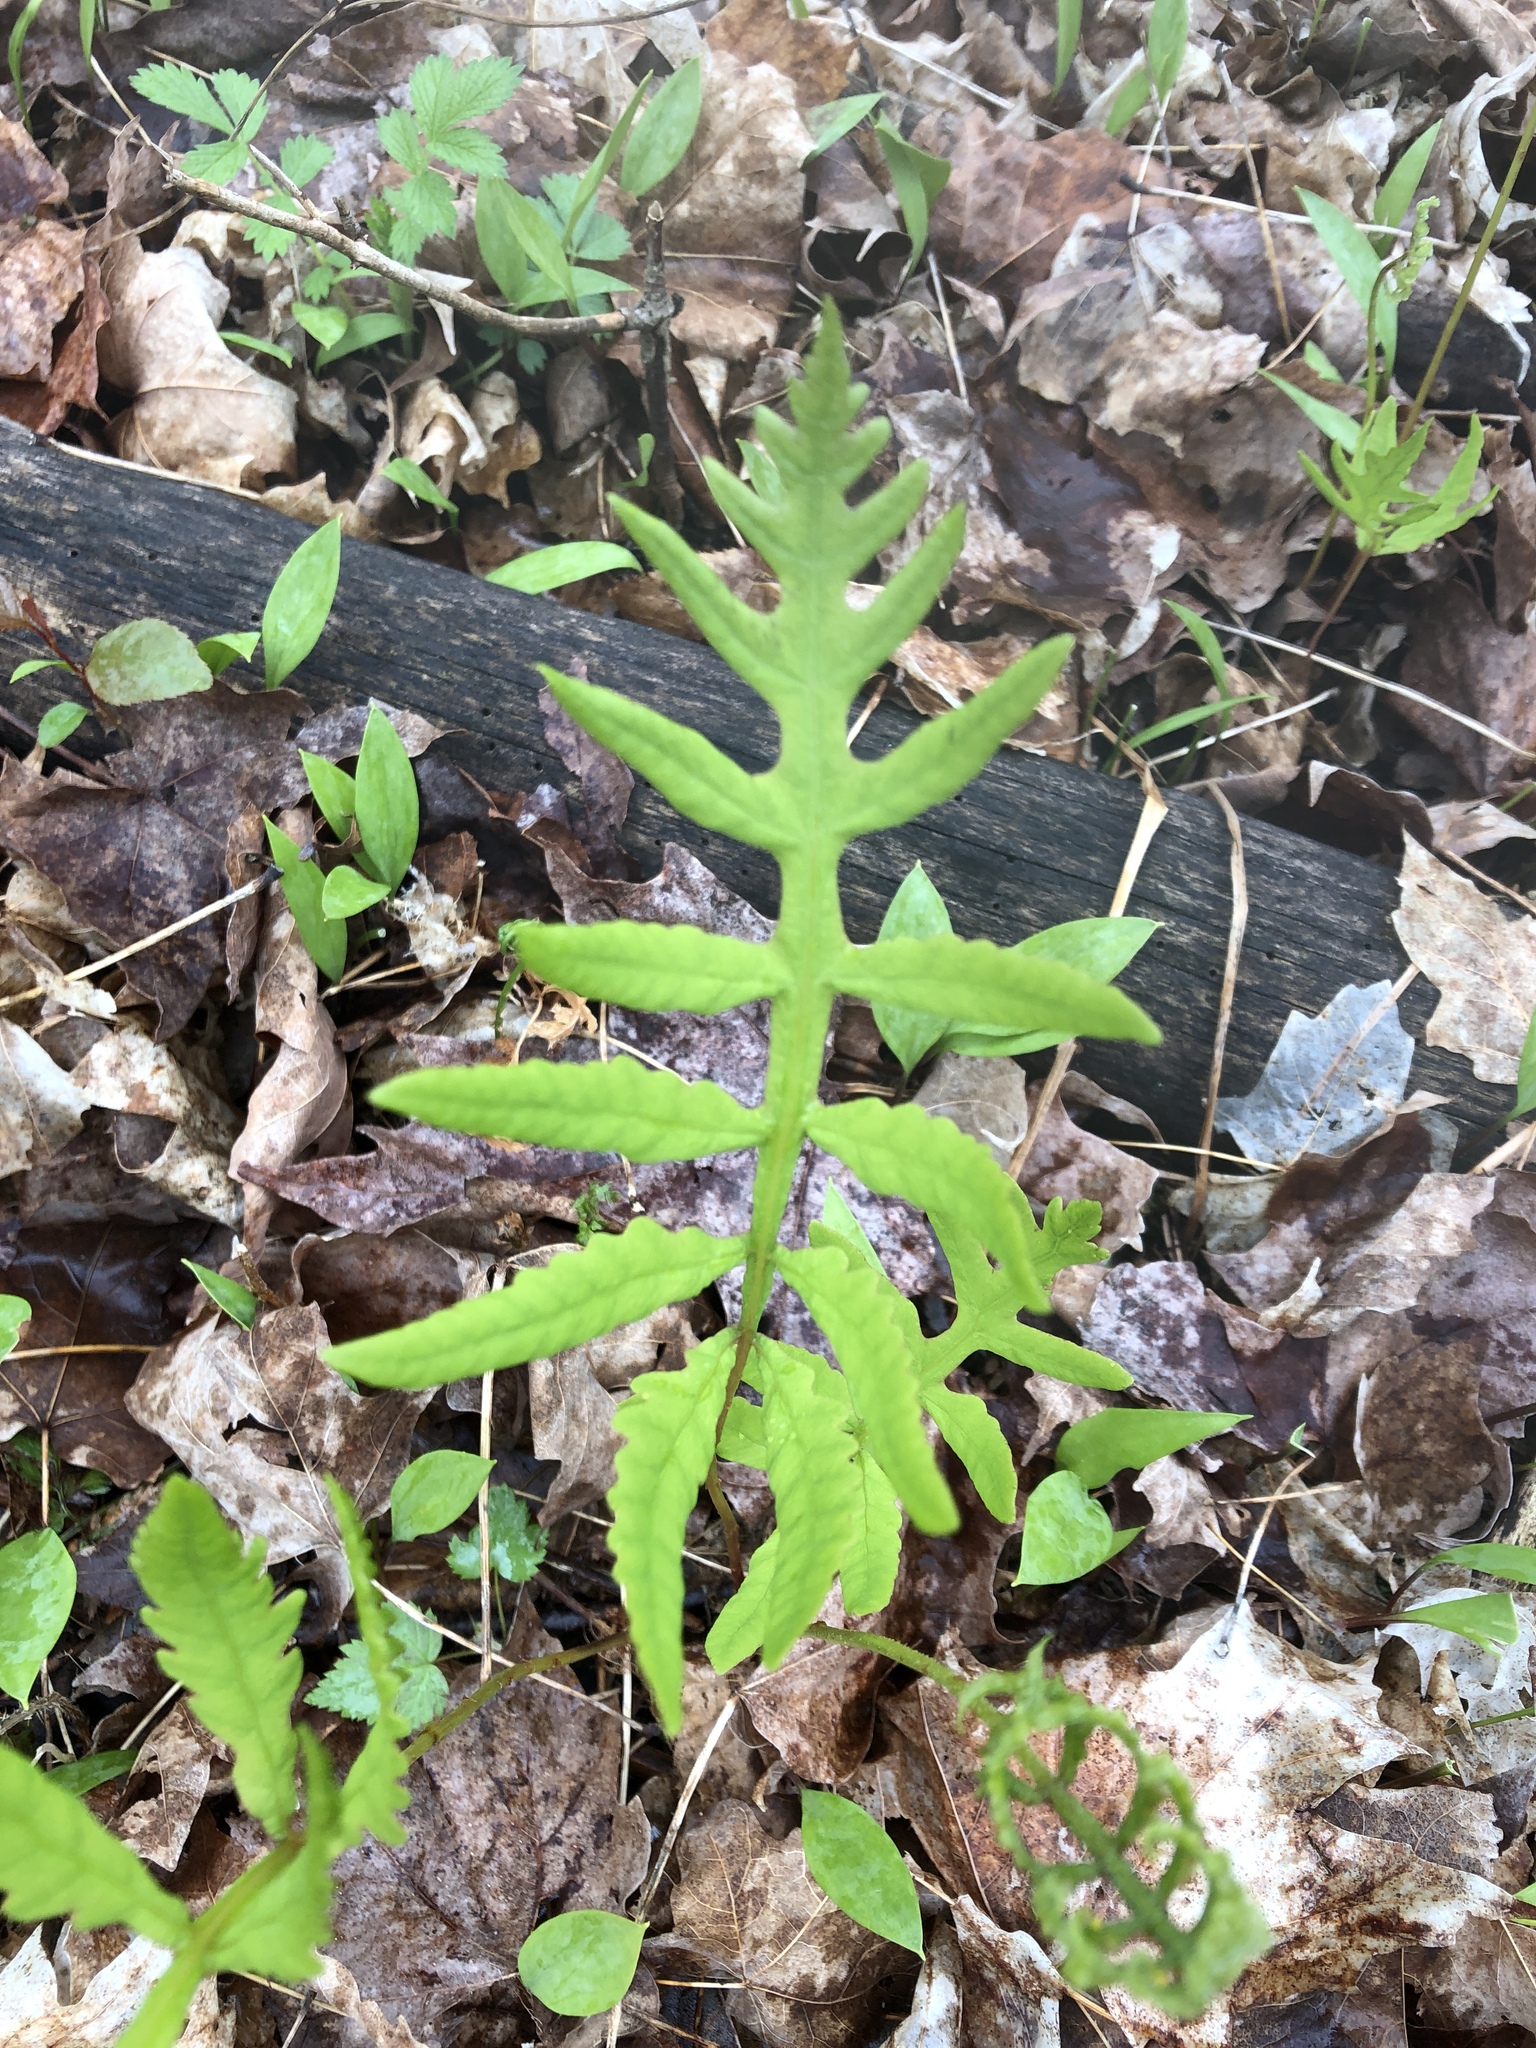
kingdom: Plantae
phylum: Tracheophyta
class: Polypodiopsida
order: Polypodiales
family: Onocleaceae
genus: Onoclea
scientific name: Onoclea sensibilis
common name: Sensitive fern
